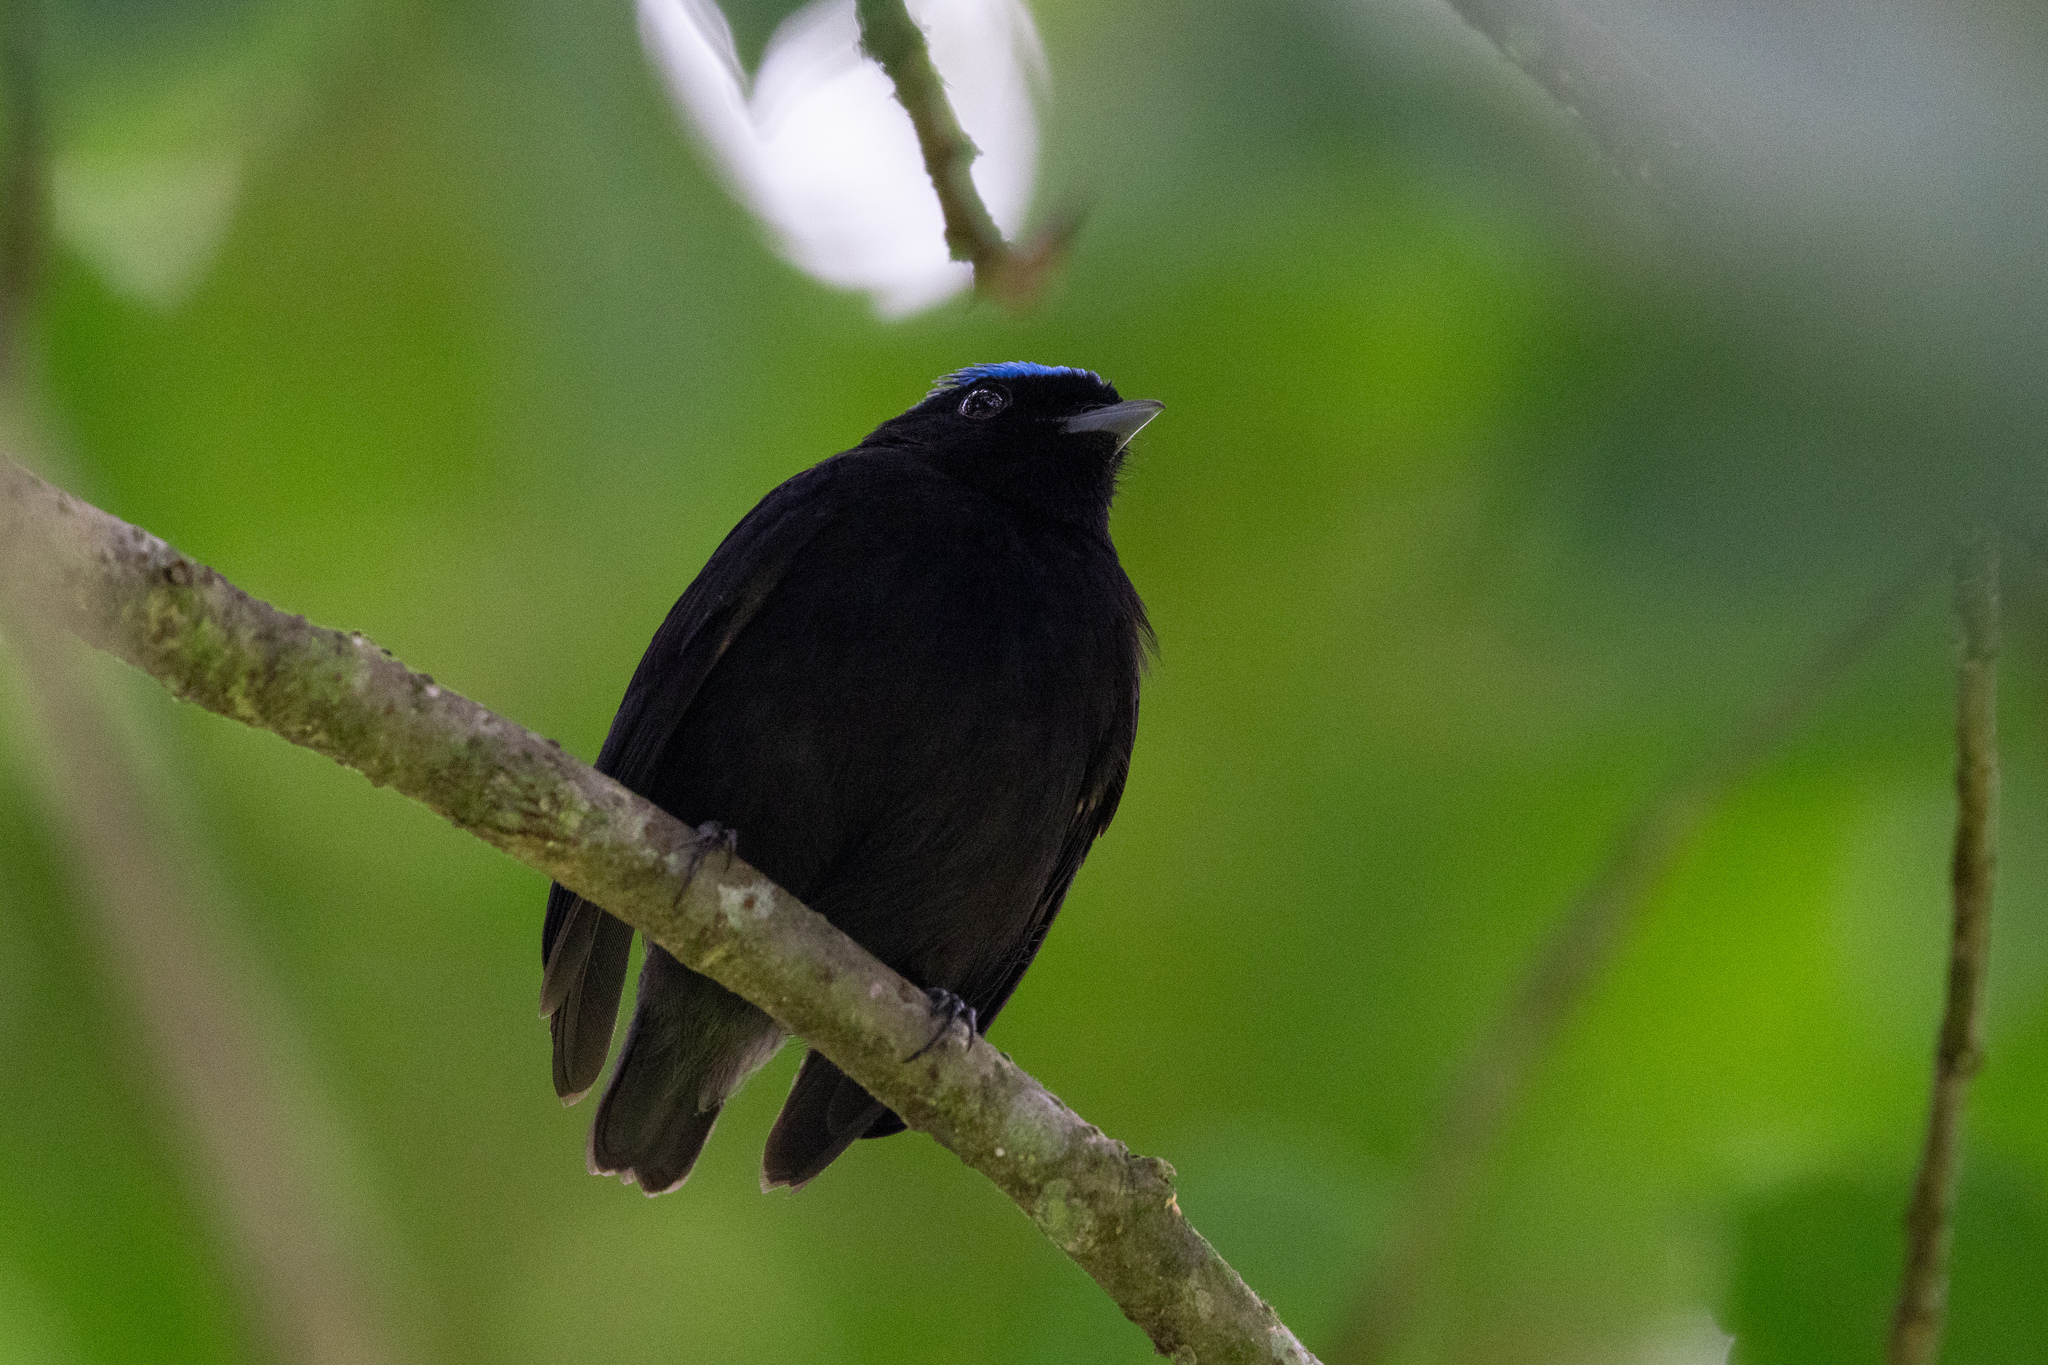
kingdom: Animalia
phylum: Chordata
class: Aves
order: Passeriformes
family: Pipridae
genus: Lepidothrix
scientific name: Lepidothrix coronata
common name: Blue-crowned manakin
